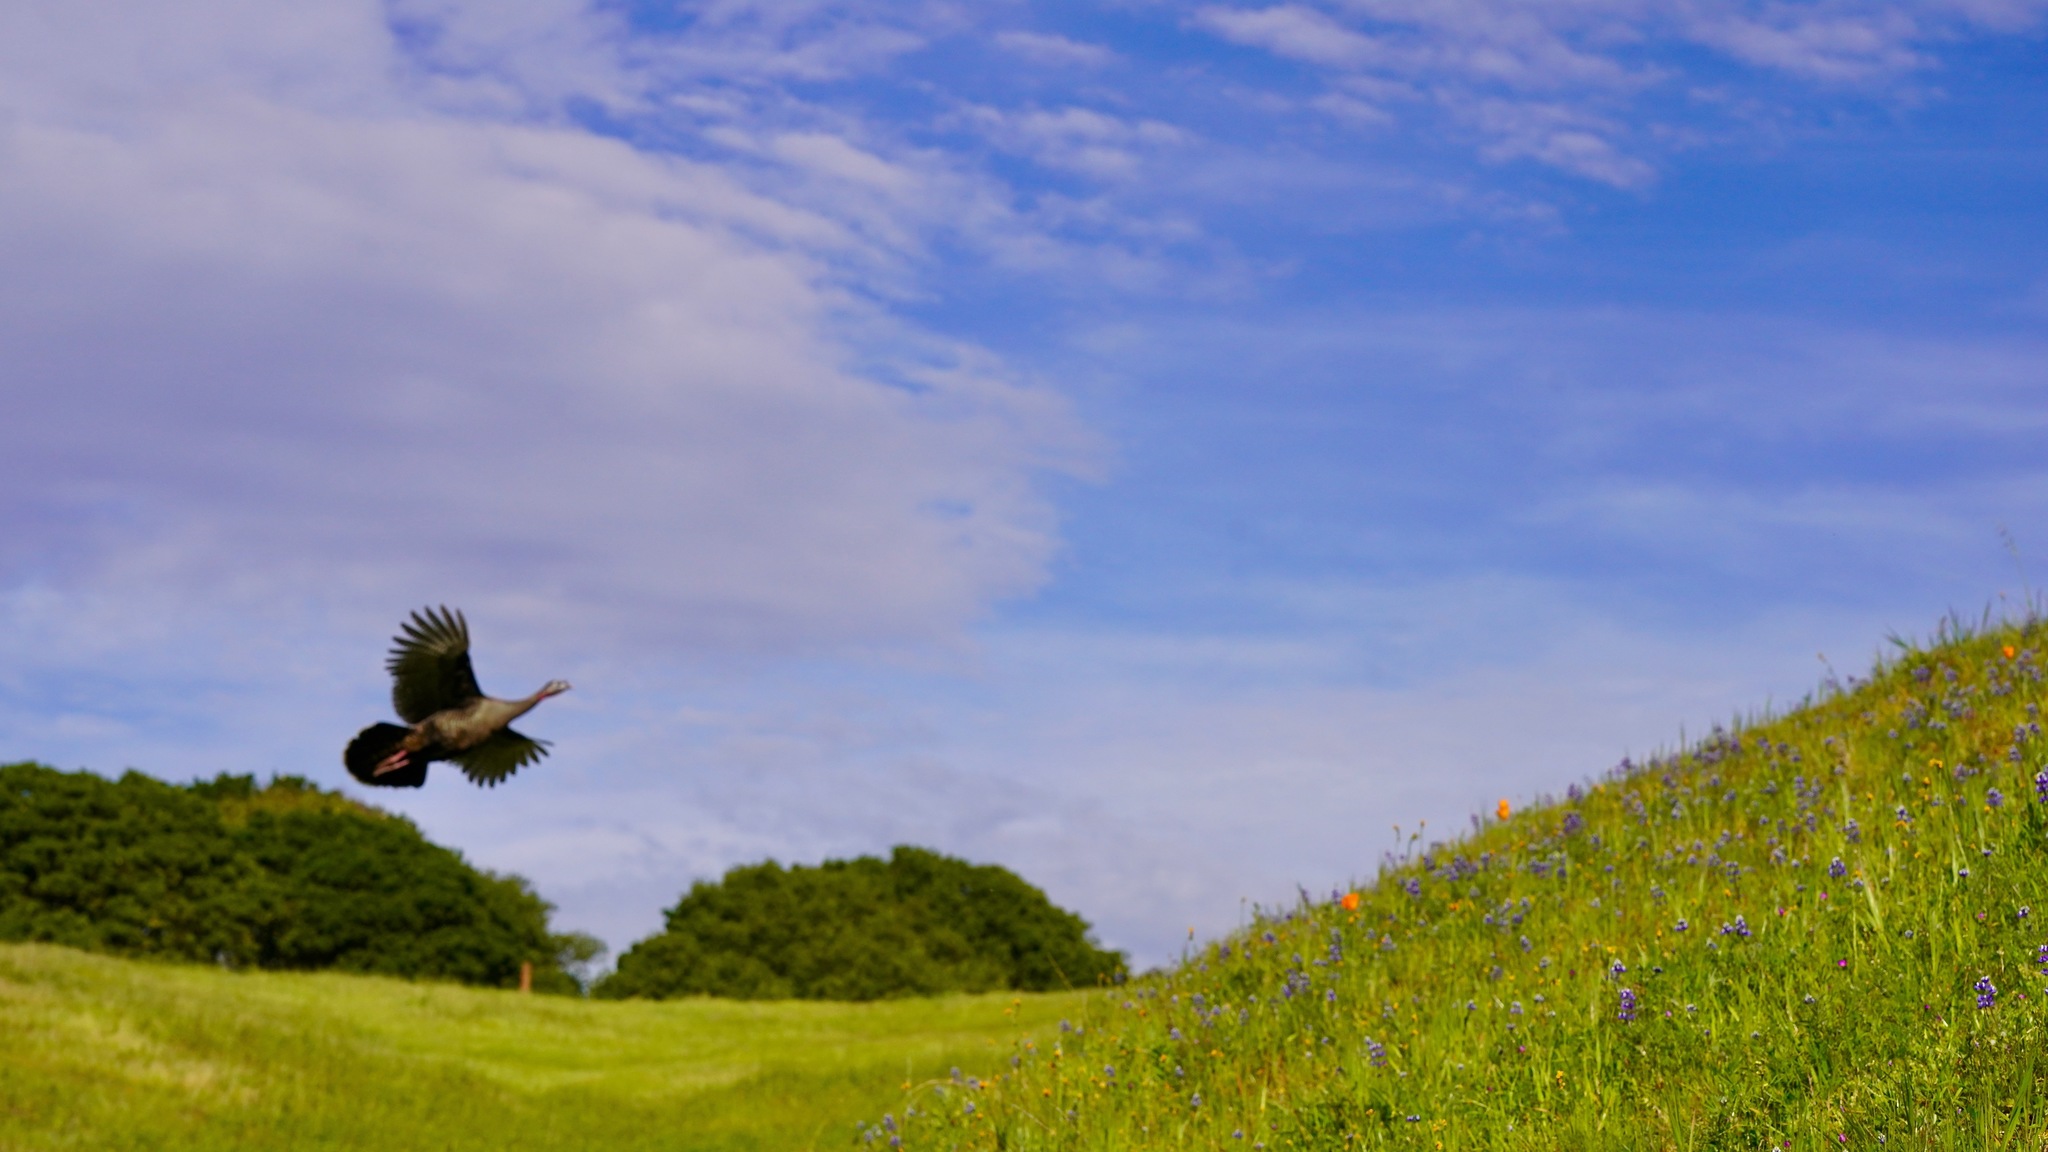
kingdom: Animalia
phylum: Chordata
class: Aves
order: Galliformes
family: Phasianidae
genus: Meleagris
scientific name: Meleagris gallopavo
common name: Wild turkey
